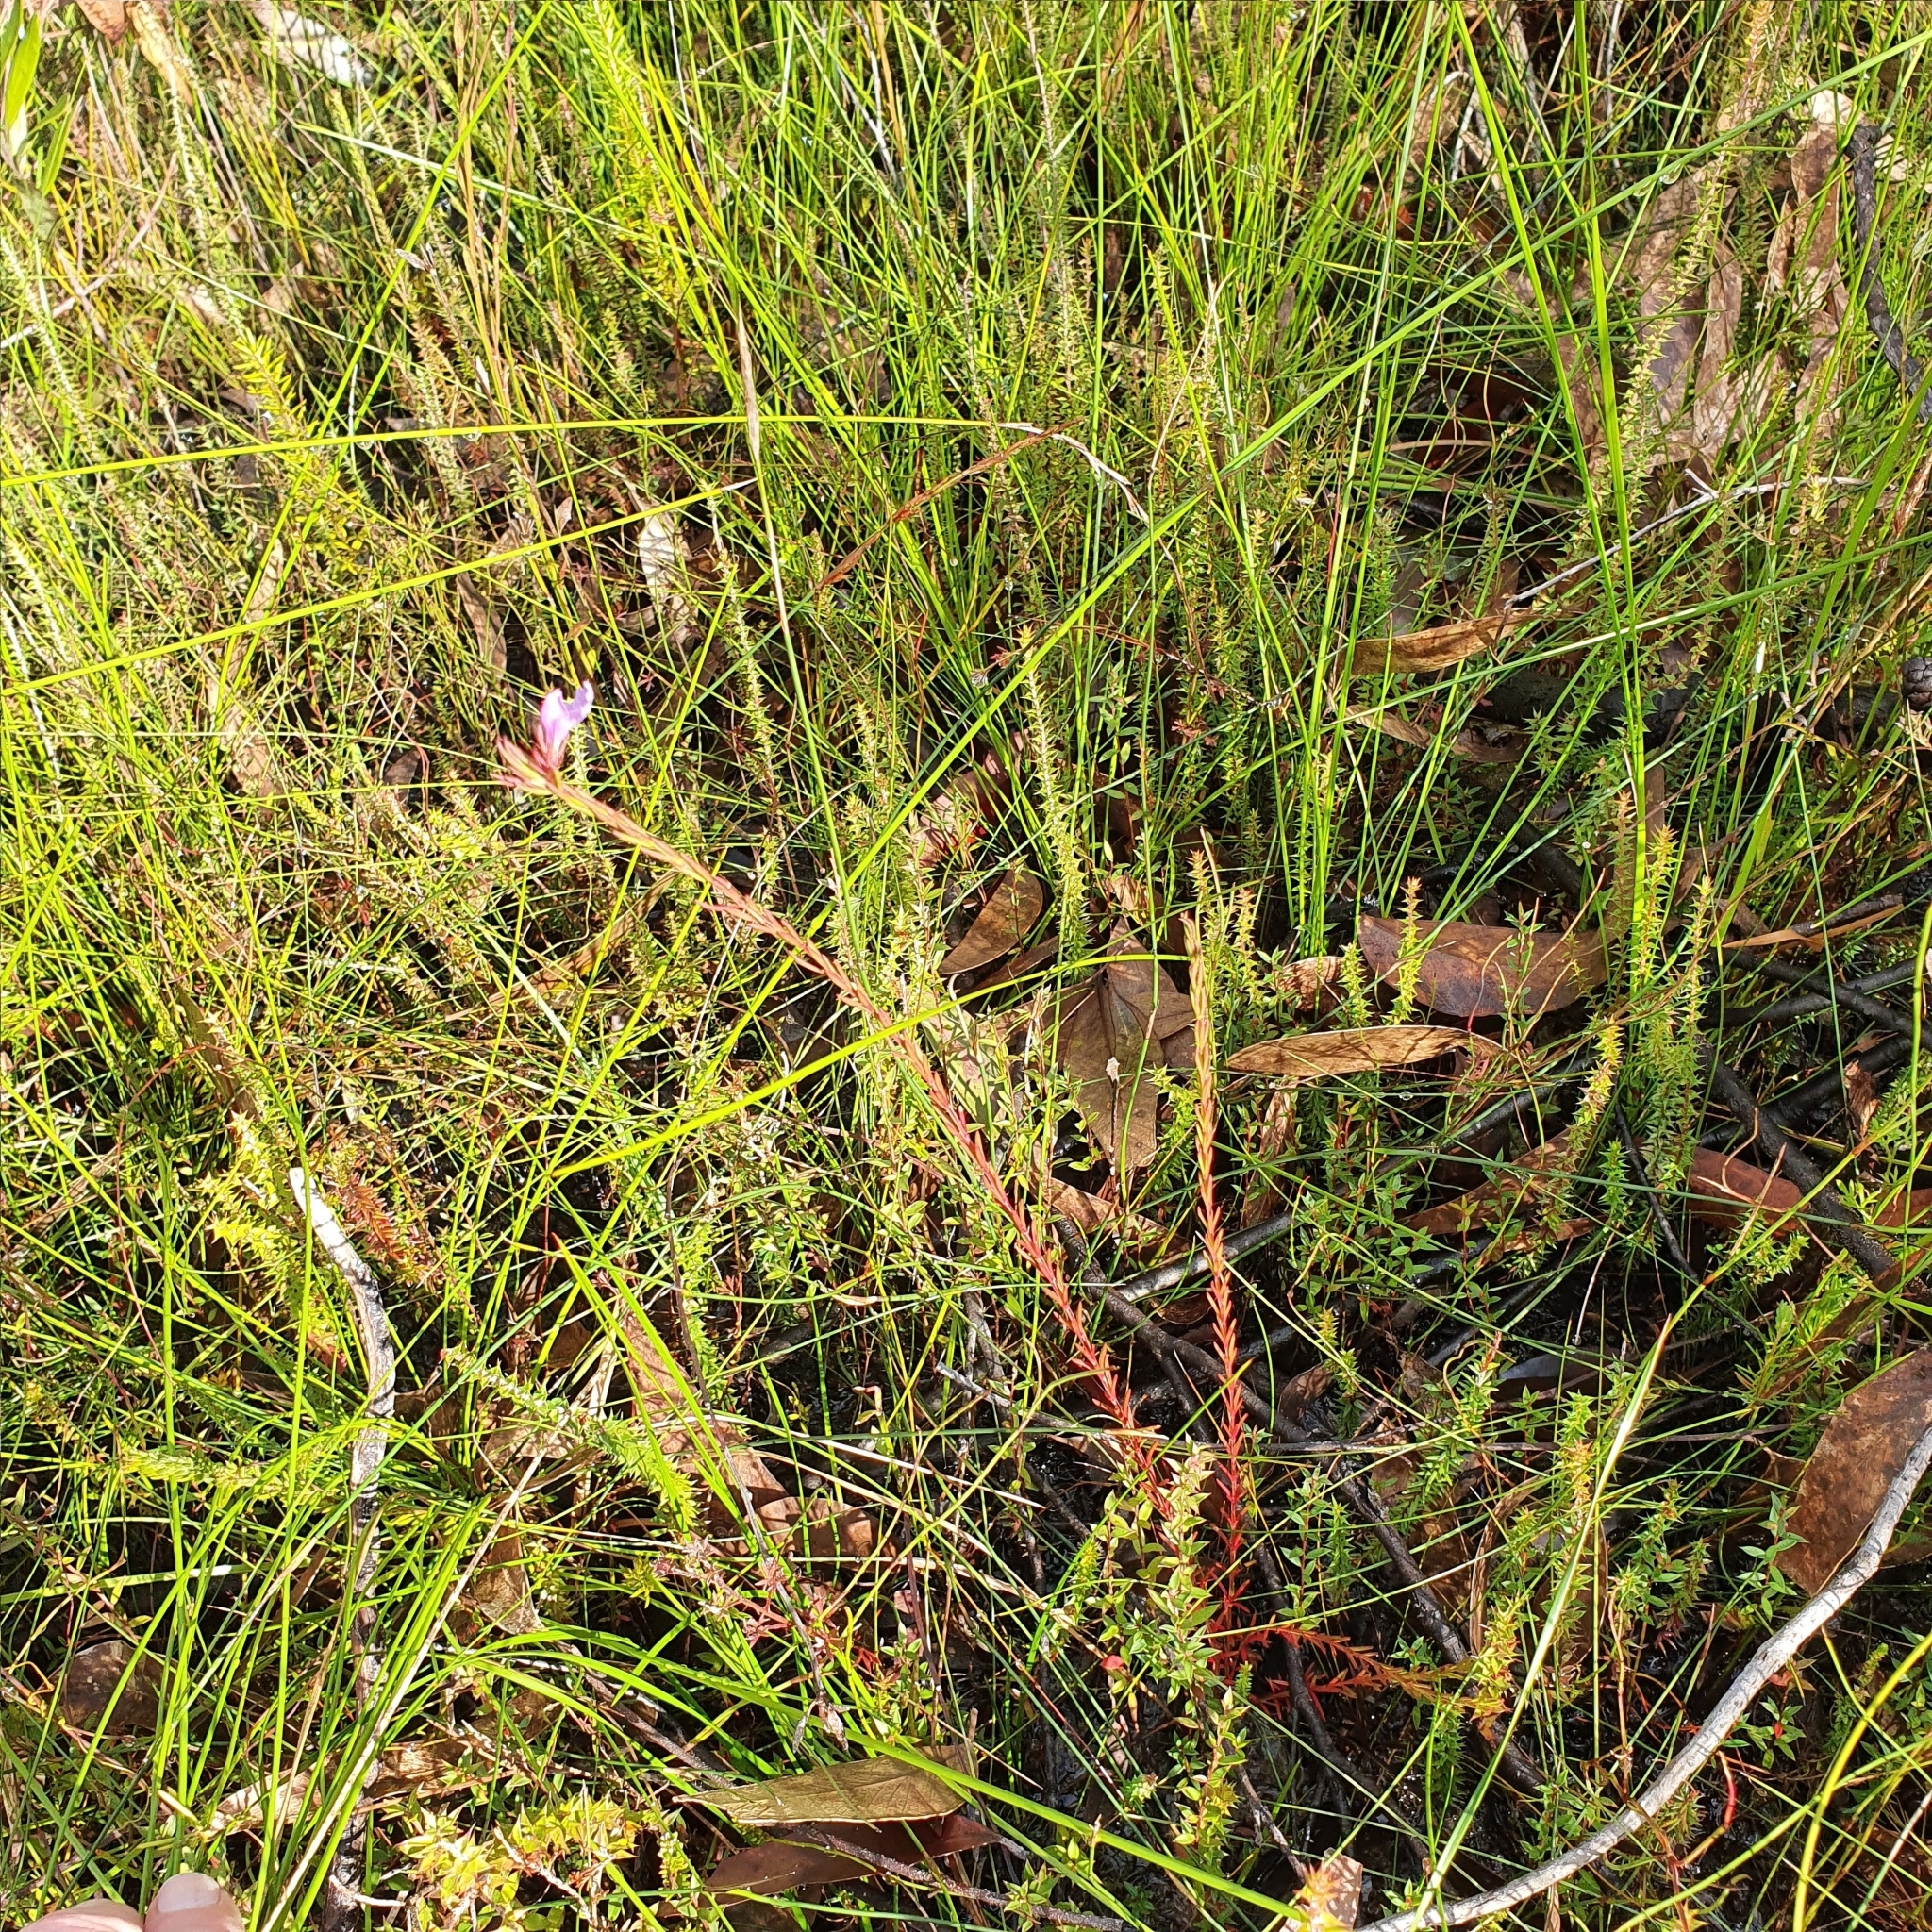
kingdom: Plantae
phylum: Tracheophyta
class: Magnoliopsida
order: Lamiales
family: Lamiaceae
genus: Hemigenia
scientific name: Hemigenia purpurea
